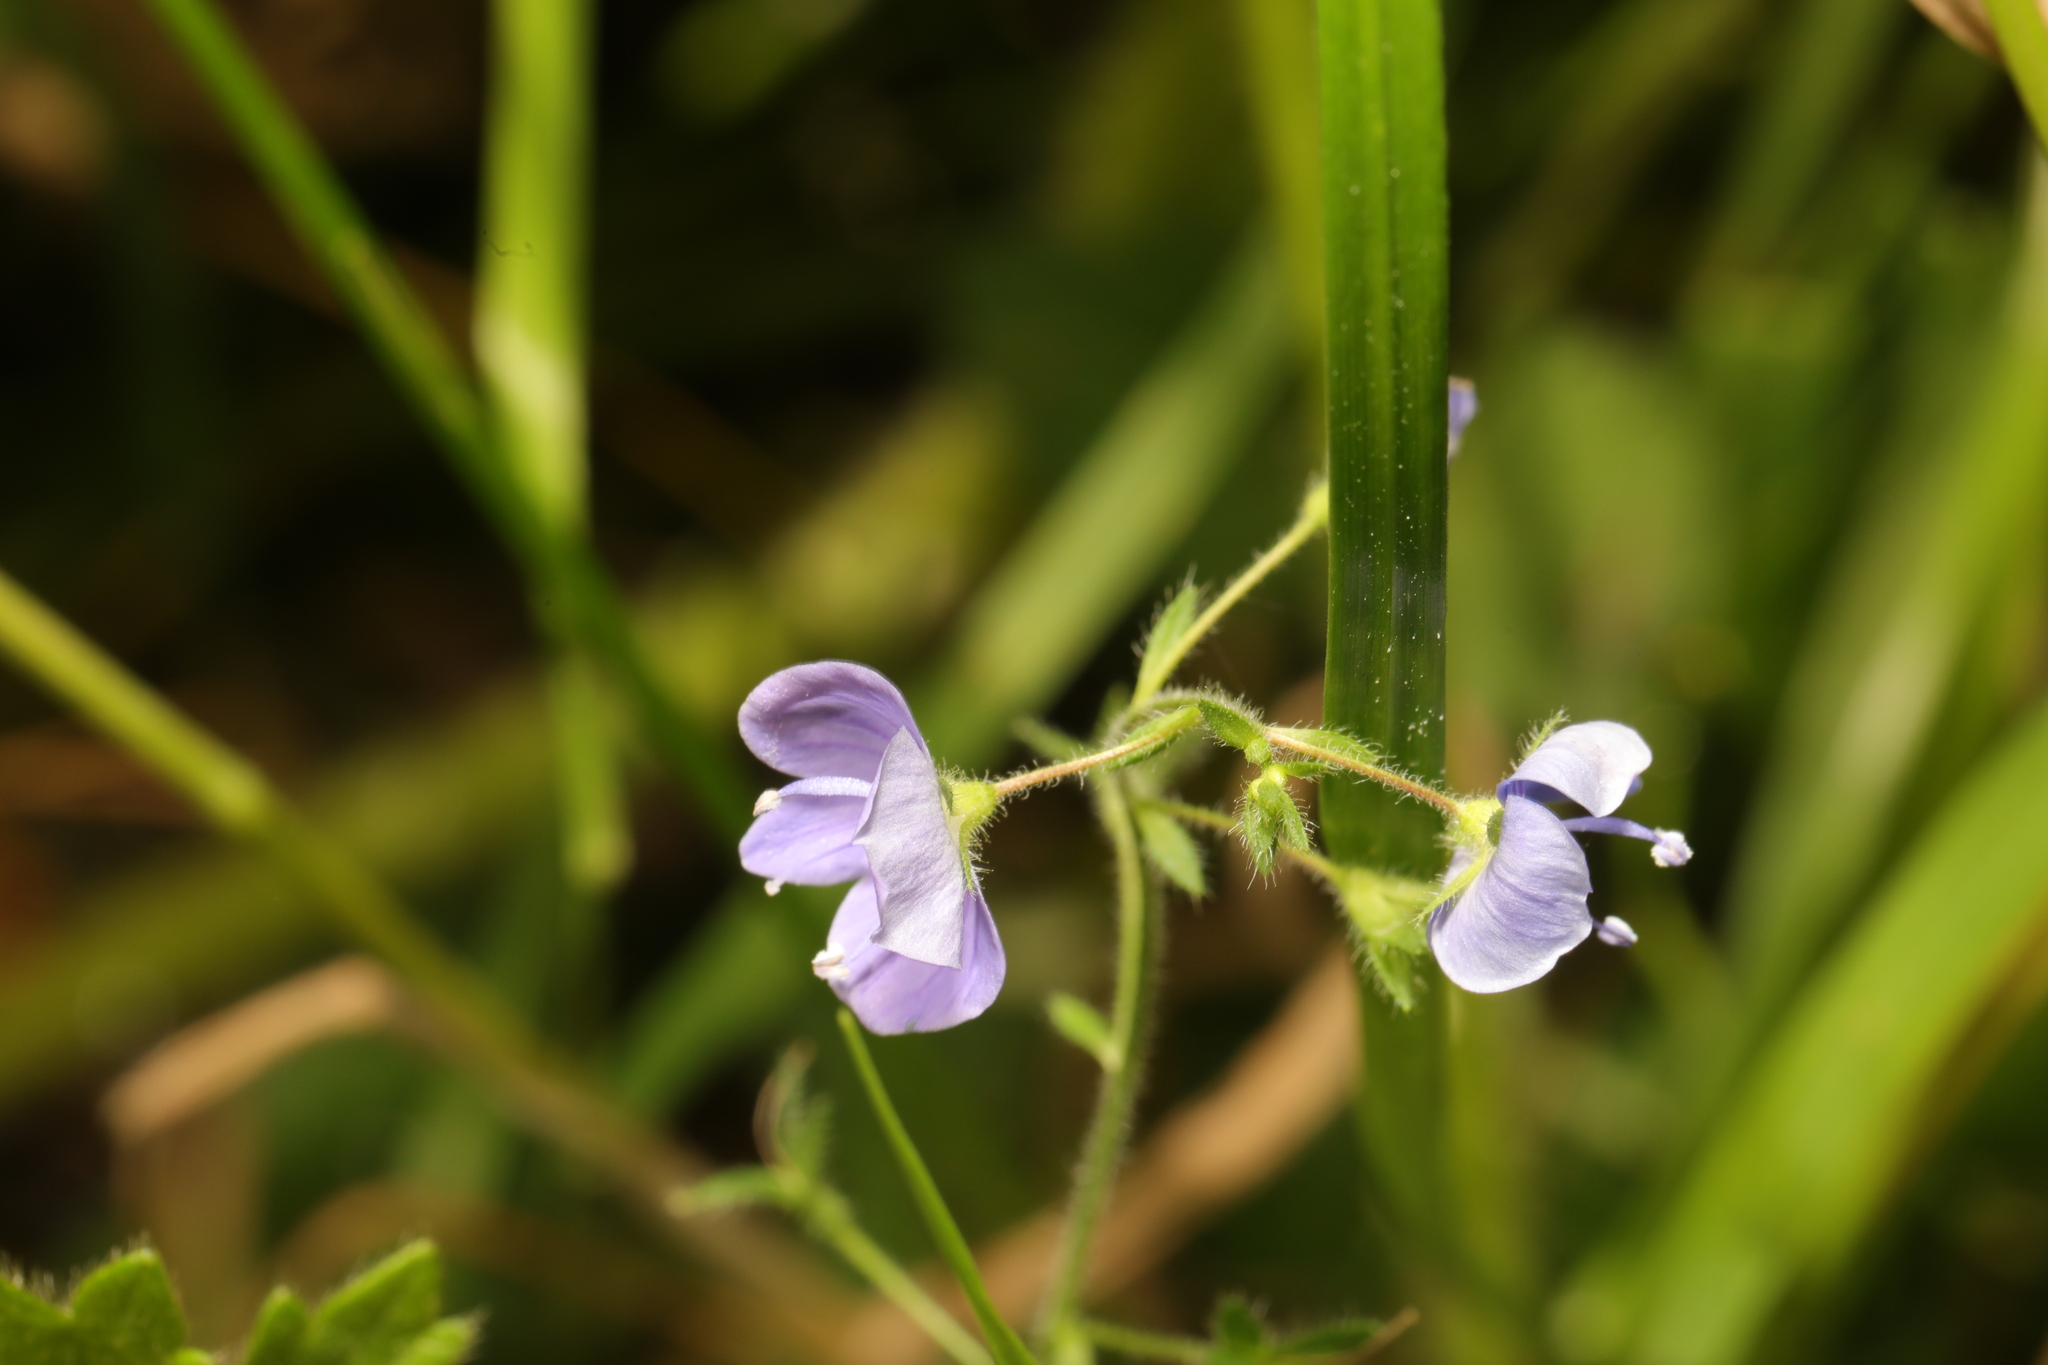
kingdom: Plantae
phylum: Tracheophyta
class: Magnoliopsida
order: Lamiales
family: Plantaginaceae
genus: Veronica
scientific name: Veronica chamaedrys
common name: Germander speedwell
